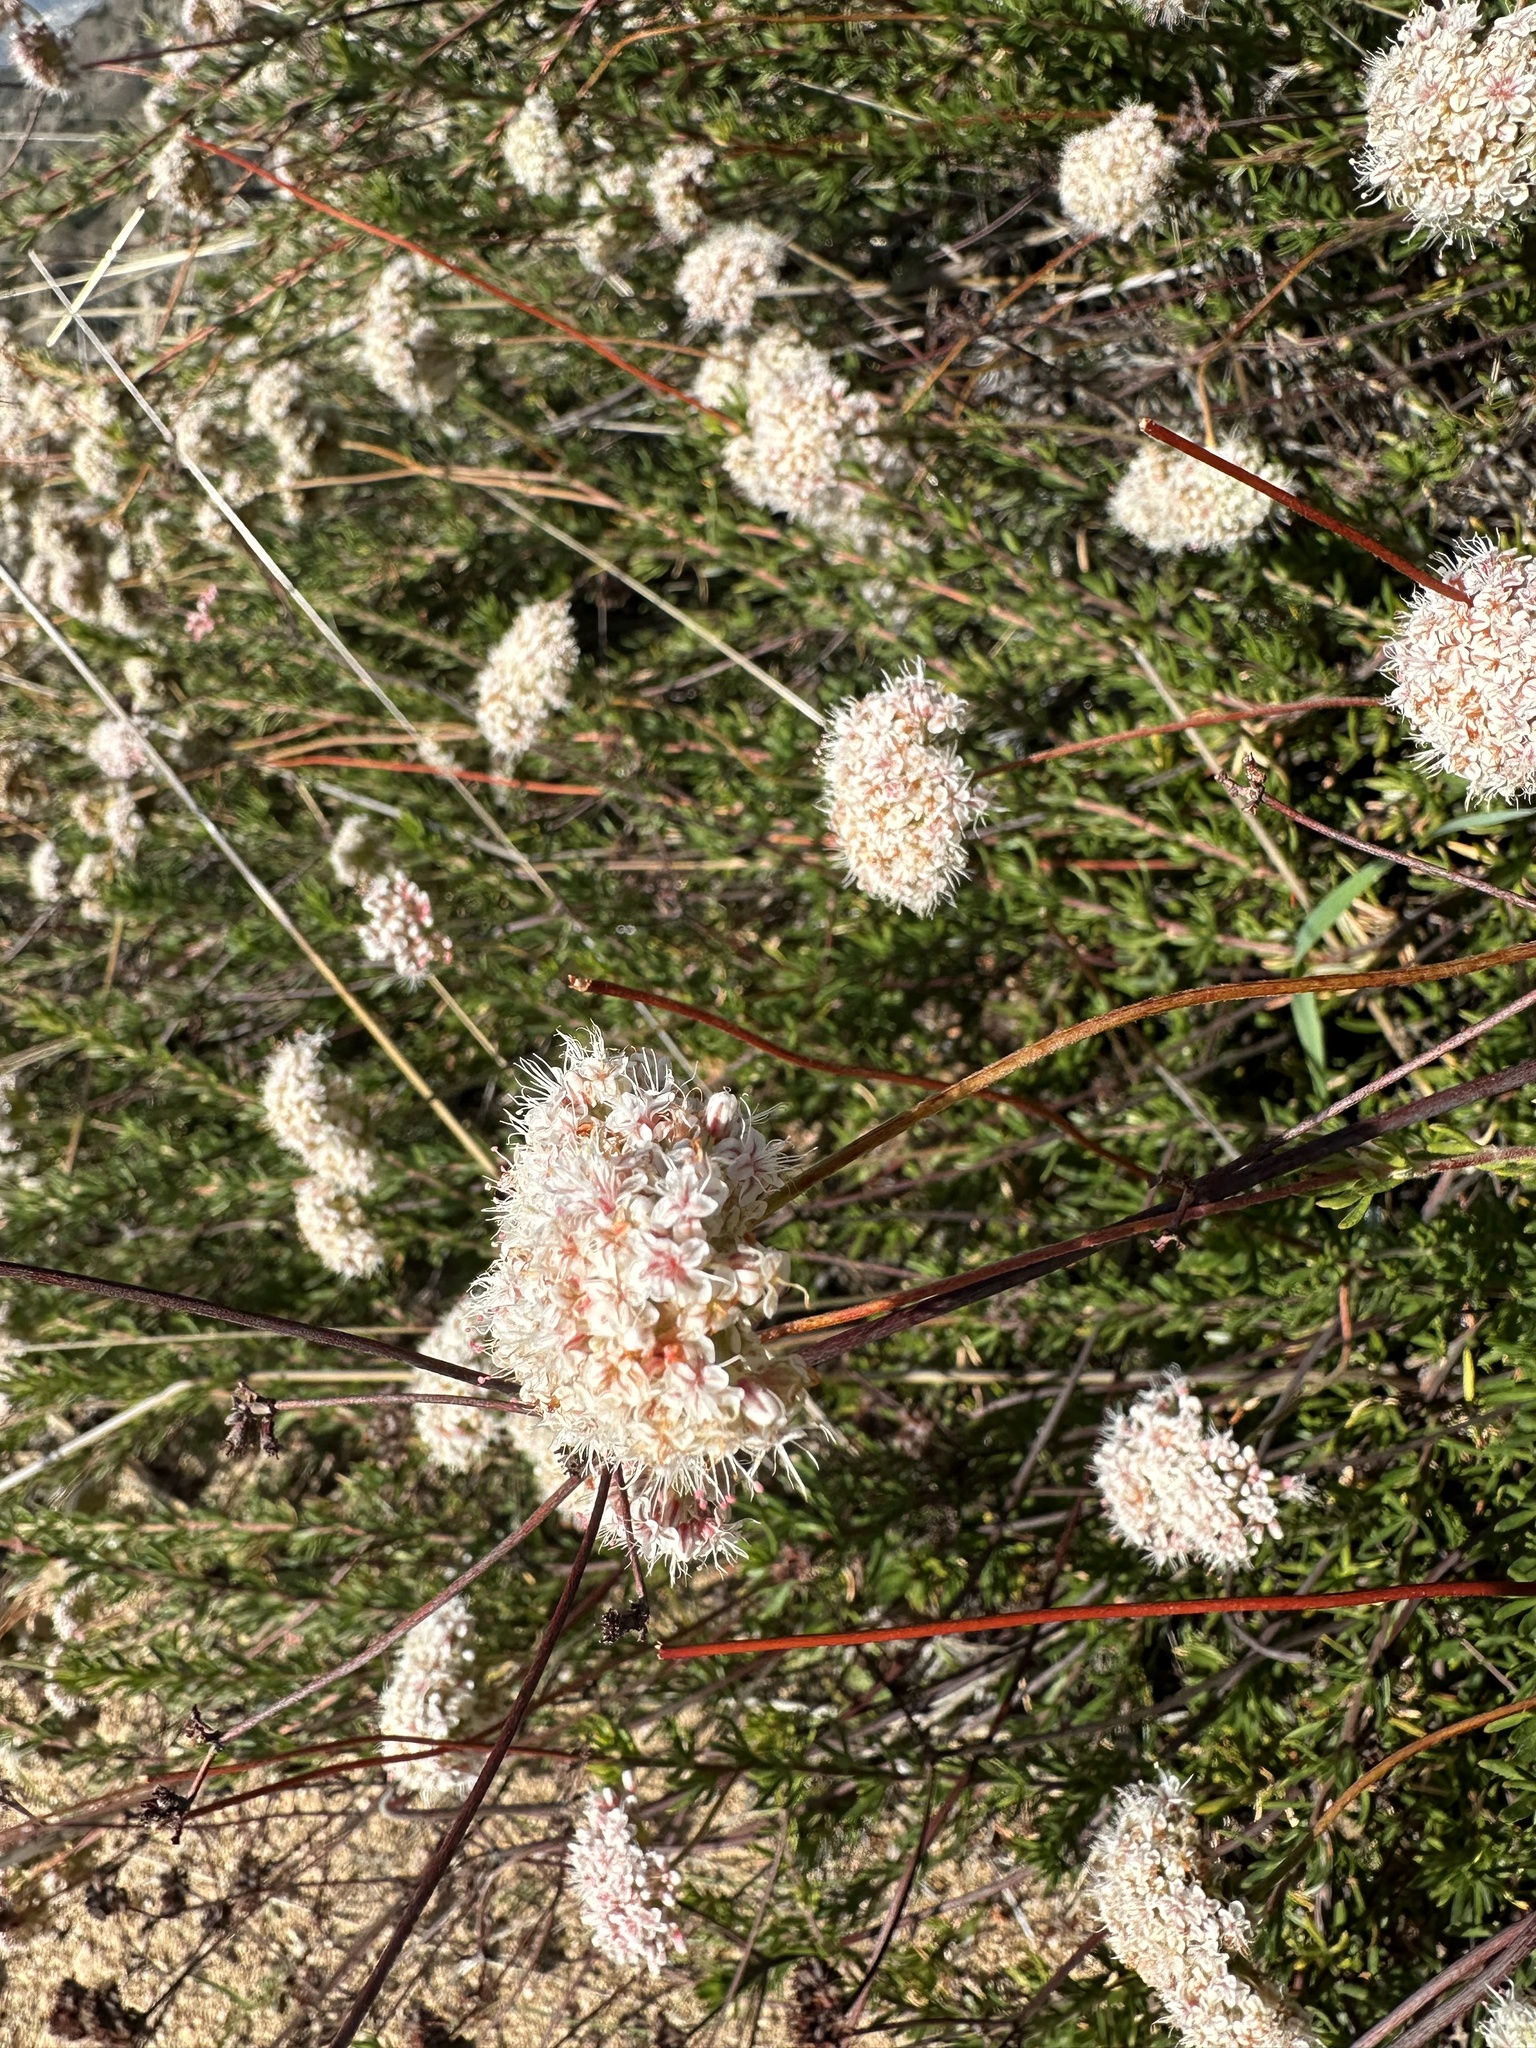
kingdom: Plantae
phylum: Tracheophyta
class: Magnoliopsida
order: Caryophyllales
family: Polygonaceae
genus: Eriogonum
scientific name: Eriogonum fasciculatum
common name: California wild buckwheat
